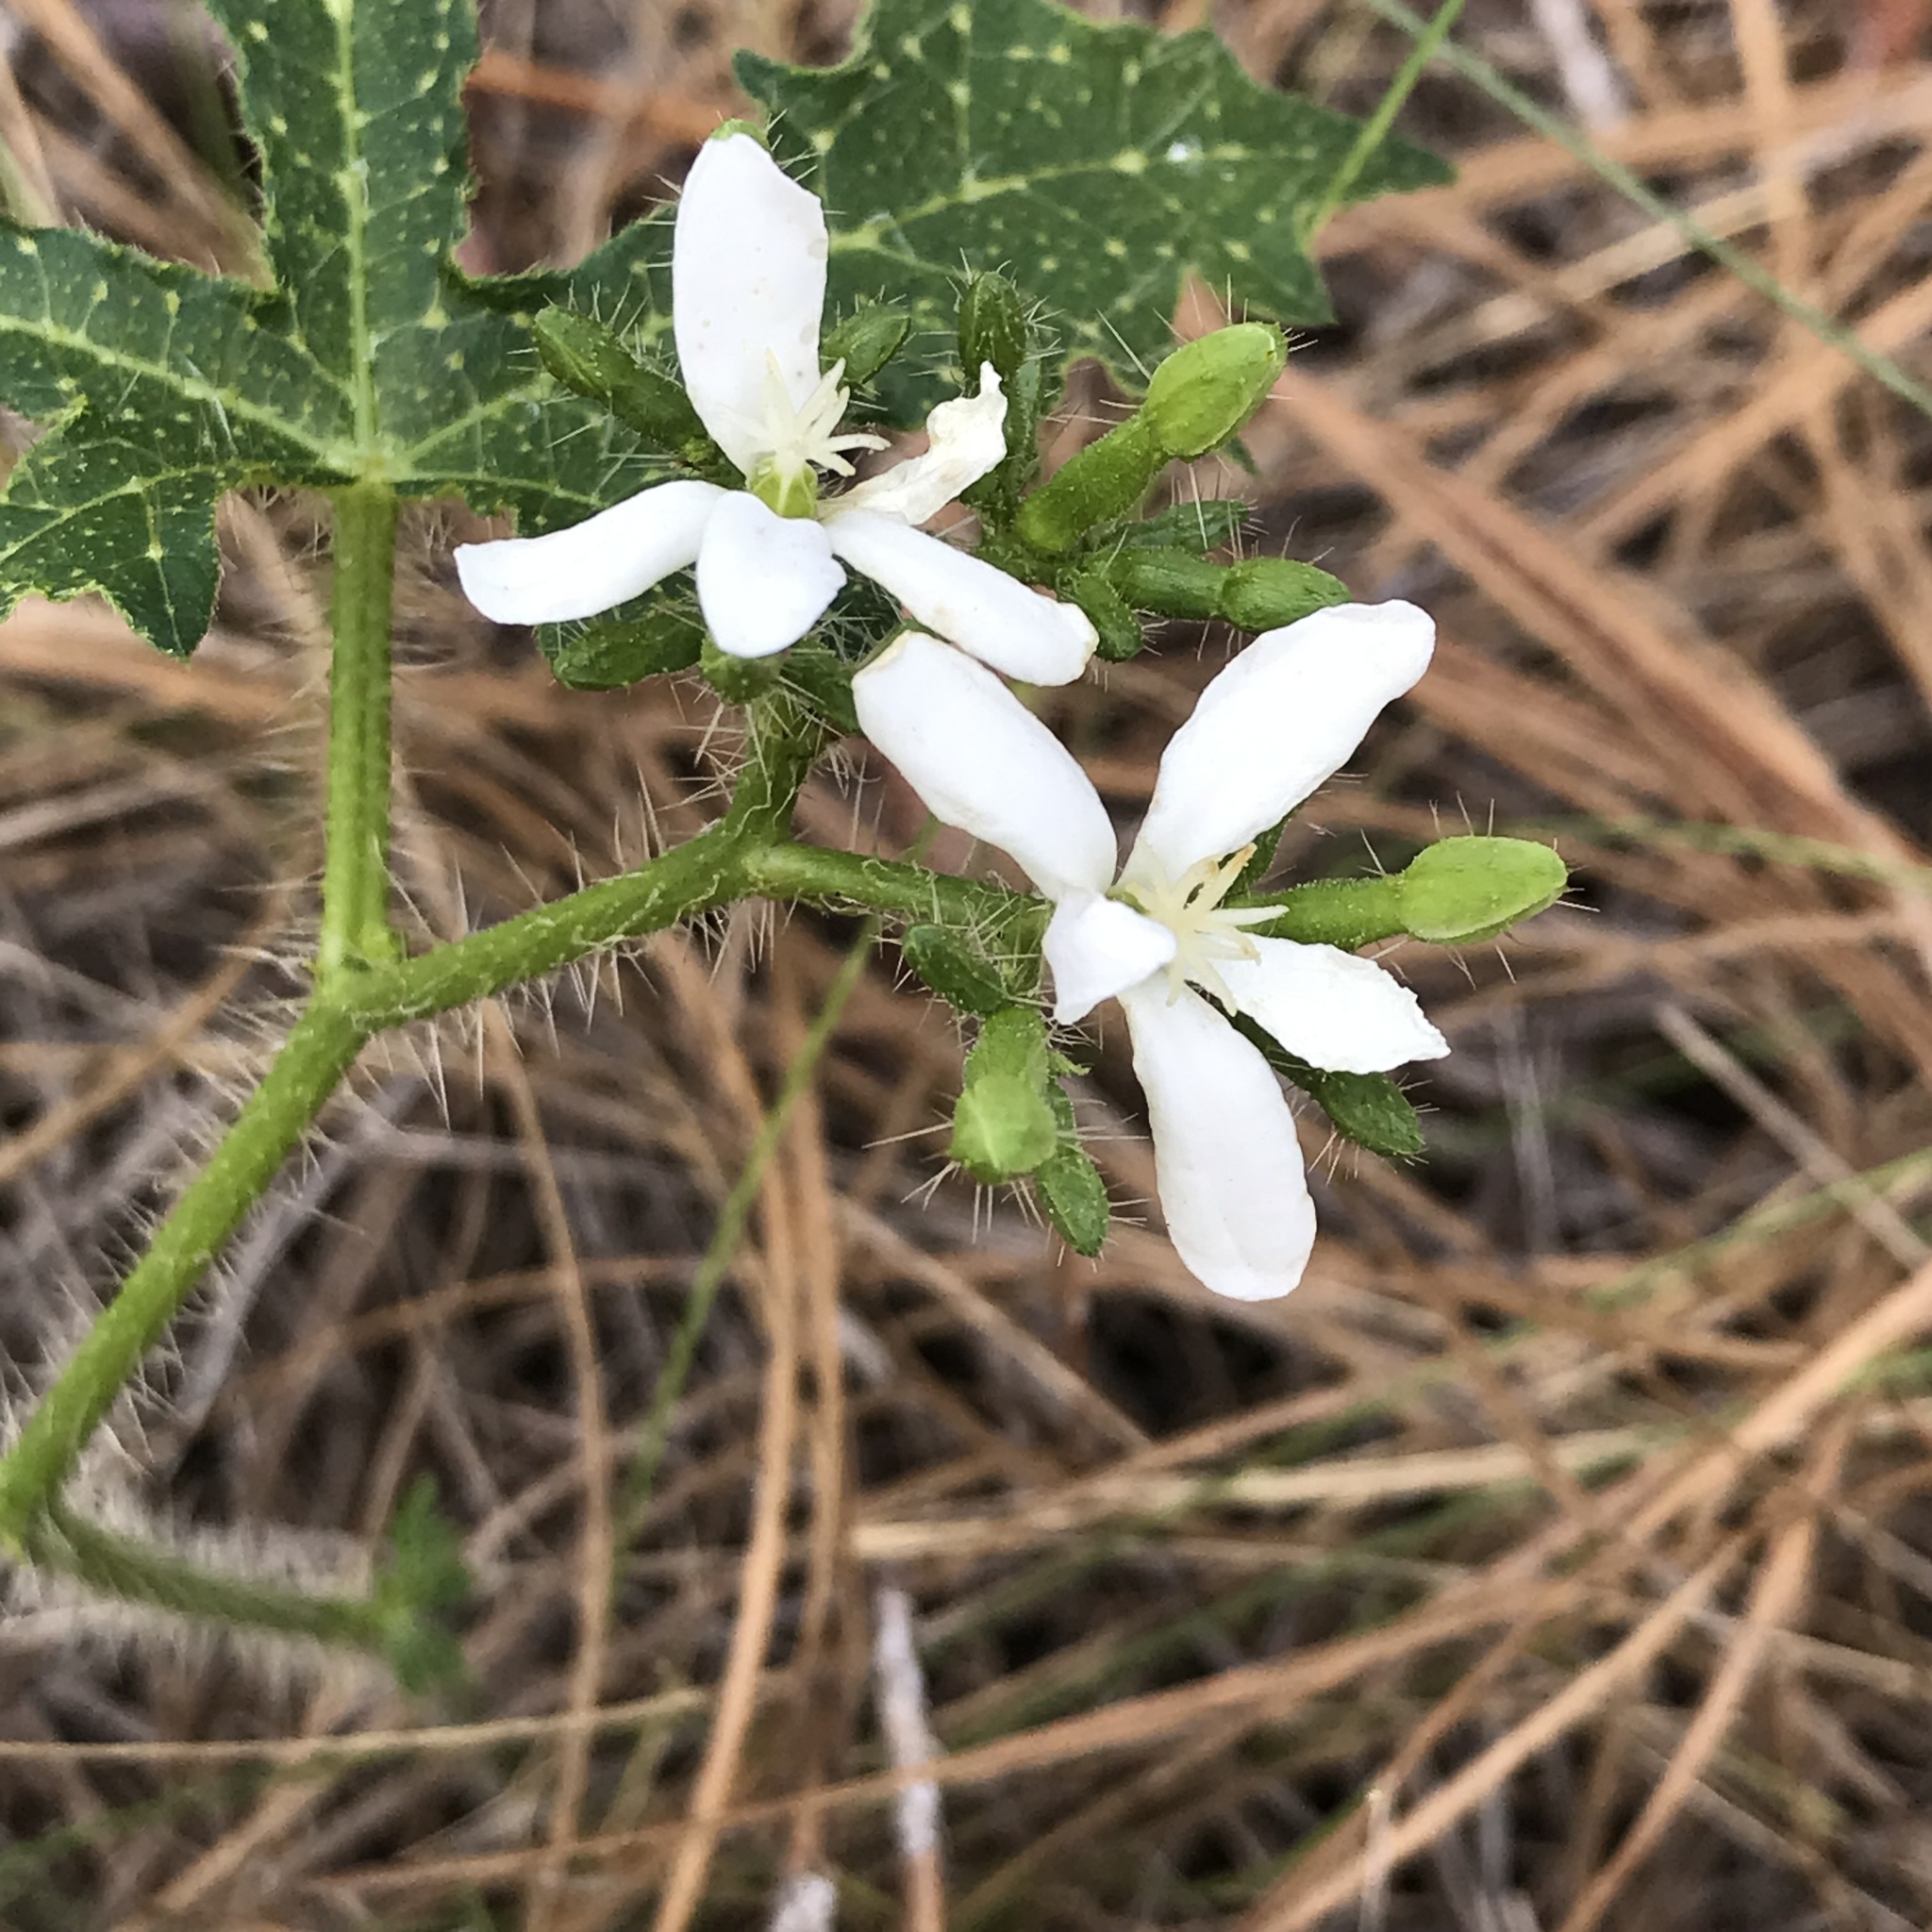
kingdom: Plantae
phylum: Tracheophyta
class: Magnoliopsida
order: Malpighiales
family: Euphorbiaceae
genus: Cnidoscolus
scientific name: Cnidoscolus stimulosus
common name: Bull-nettle
